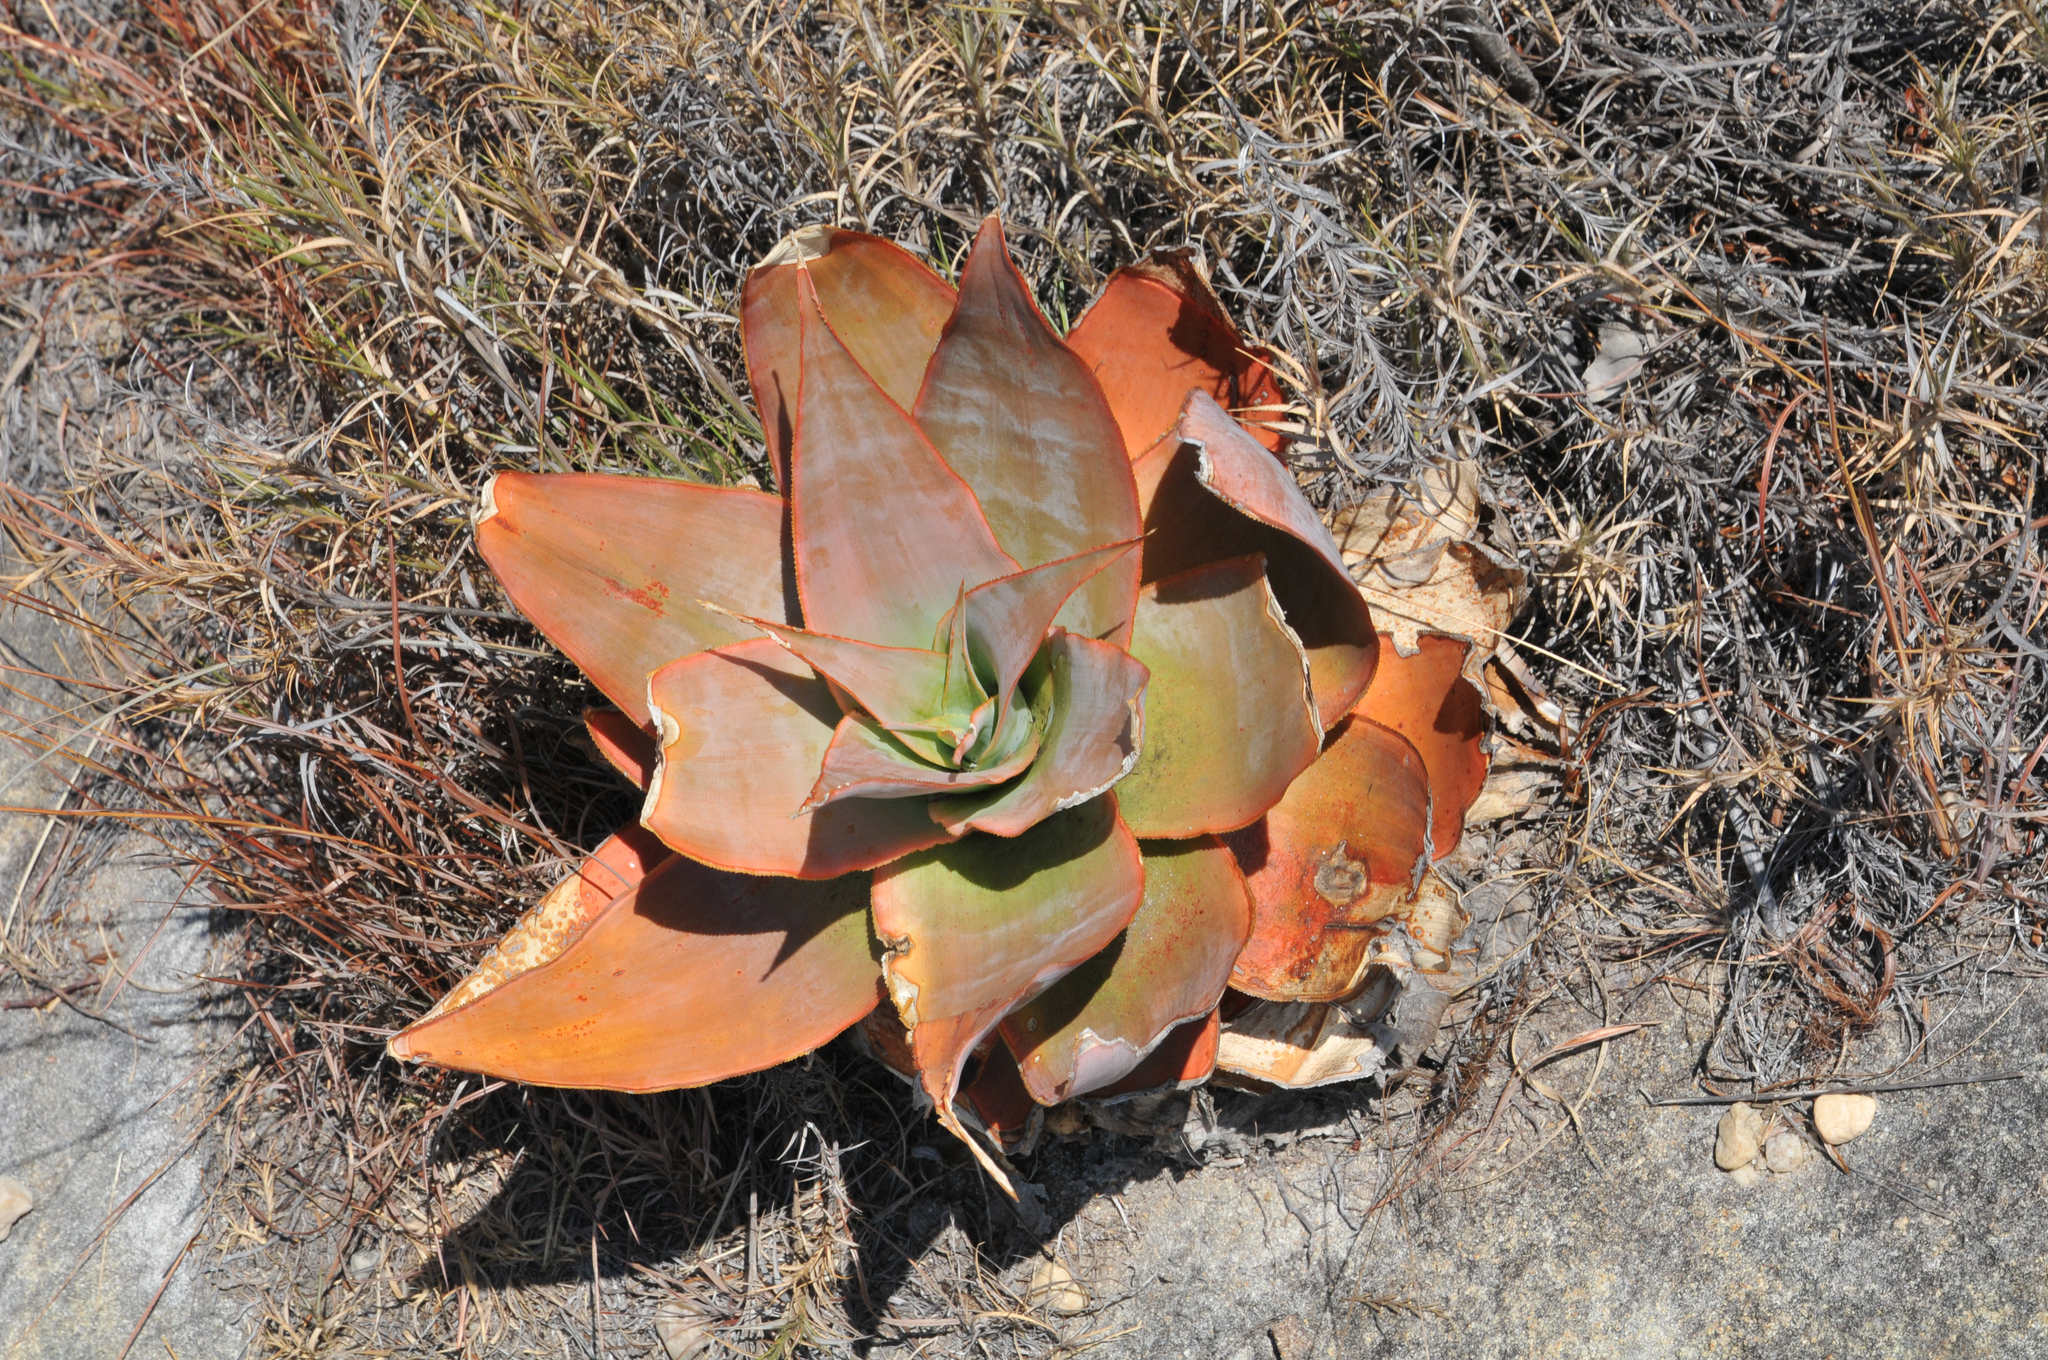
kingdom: Plantae
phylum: Tracheophyta
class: Liliopsida
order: Asparagales
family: Asphodelaceae
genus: Aloe
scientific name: Aloe imalotensis
